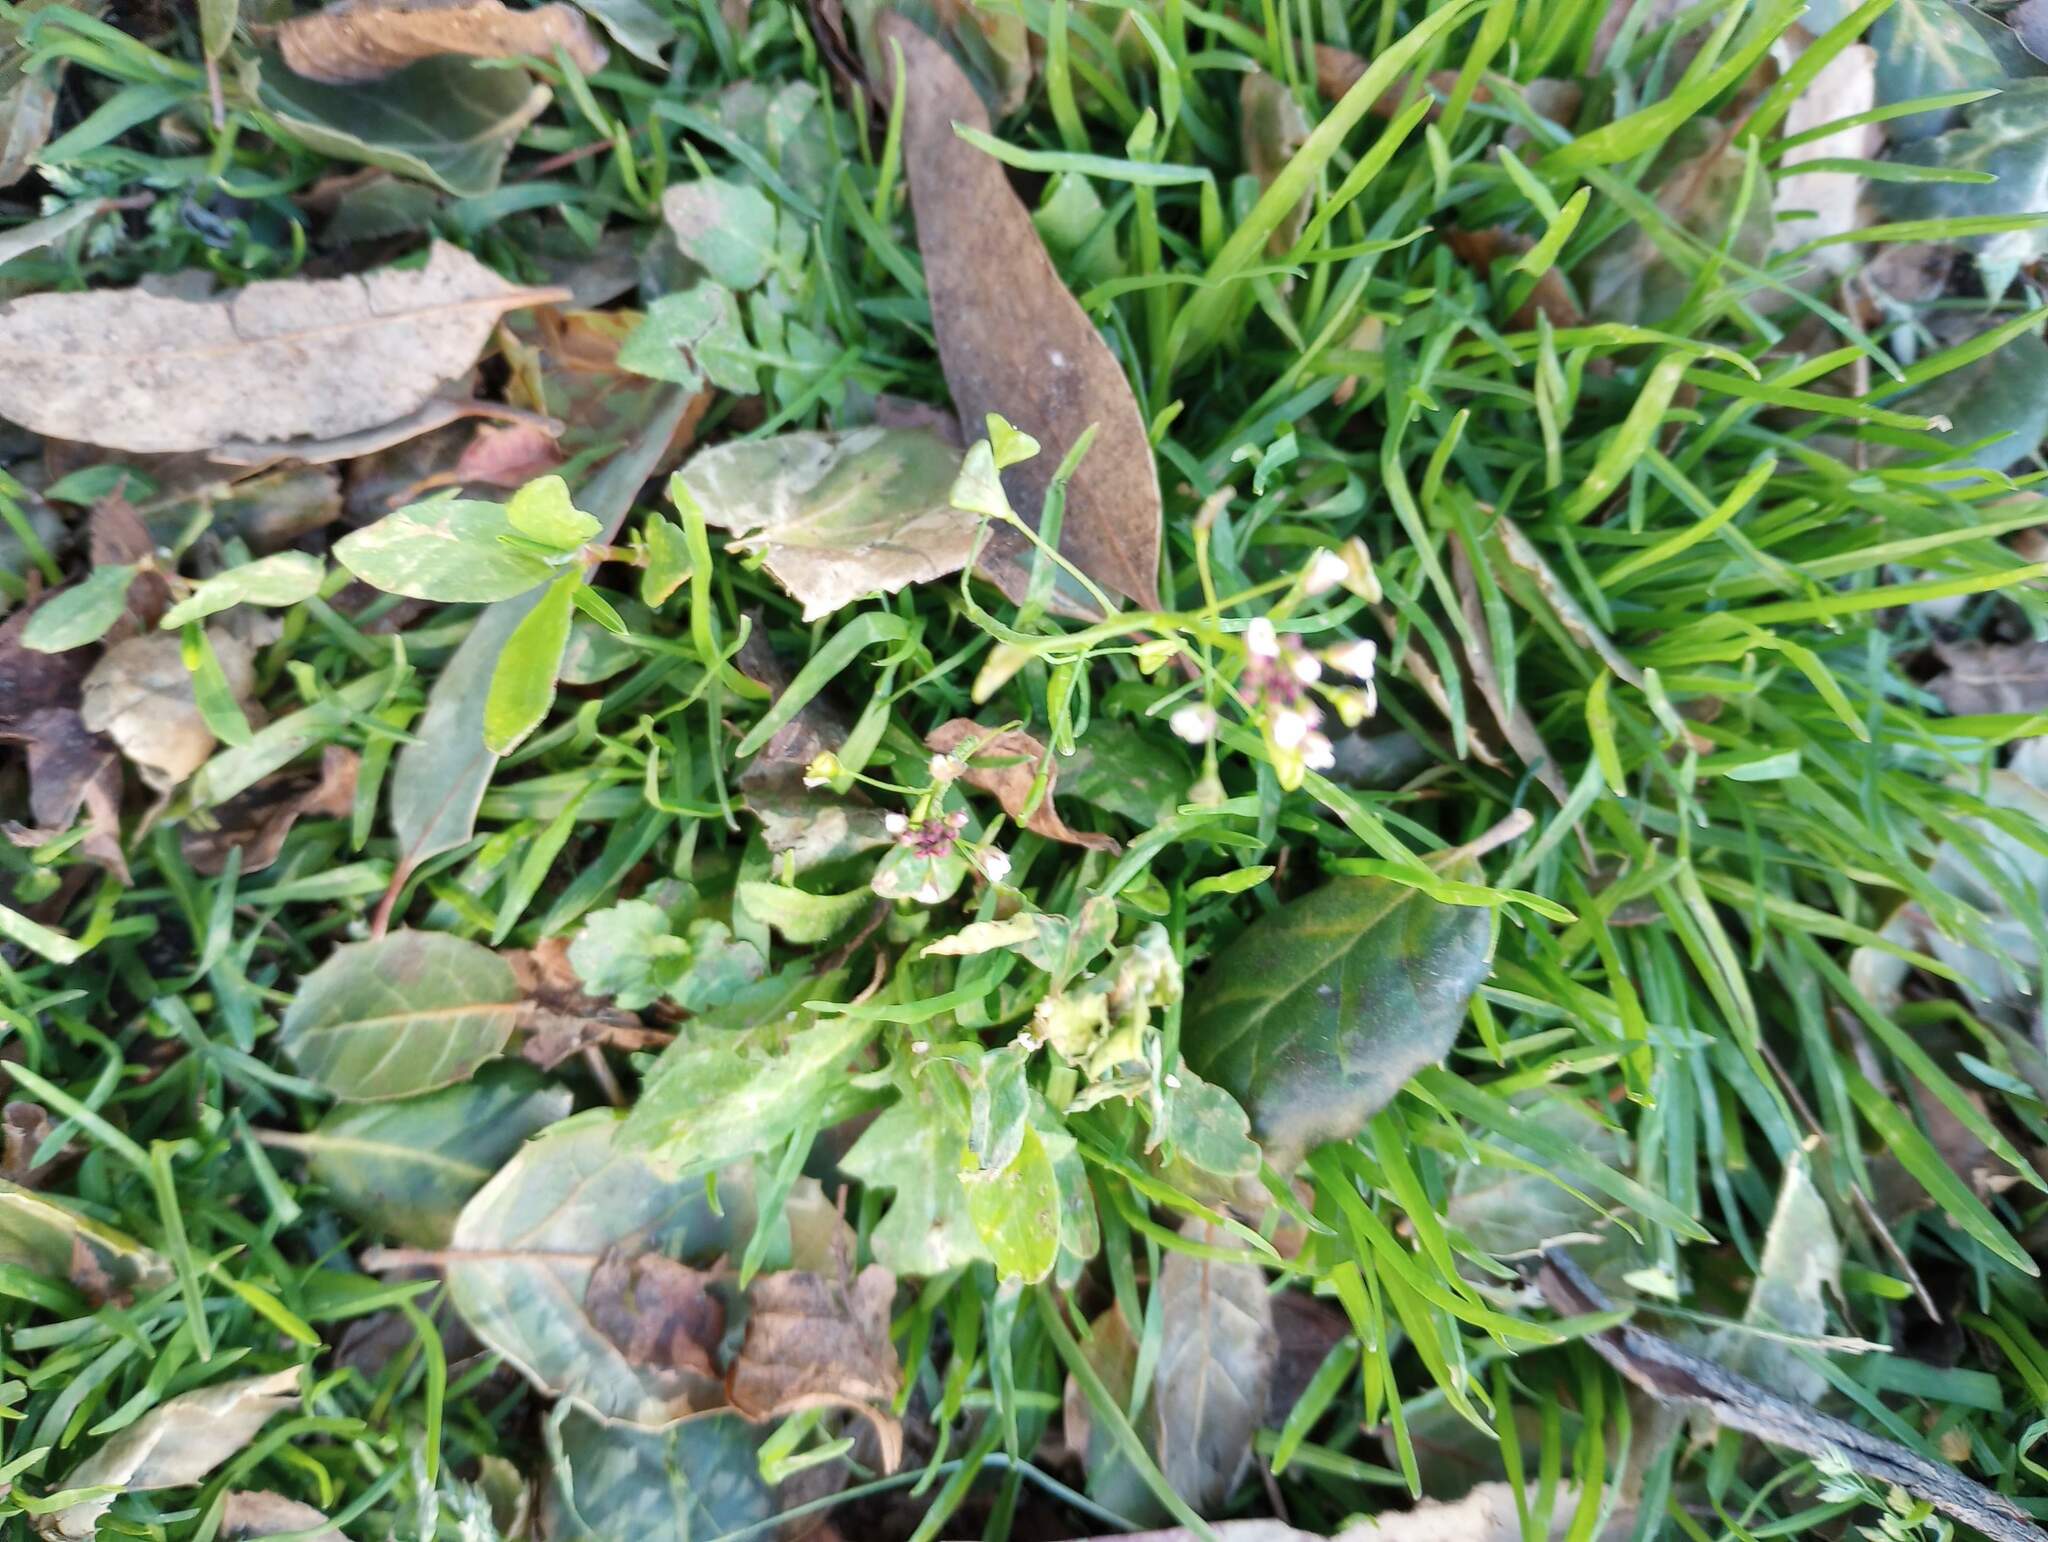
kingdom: Plantae
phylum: Tracheophyta
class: Magnoliopsida
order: Brassicales
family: Brassicaceae
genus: Capsella
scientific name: Capsella bursa-pastoris
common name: Shepherd's purse
